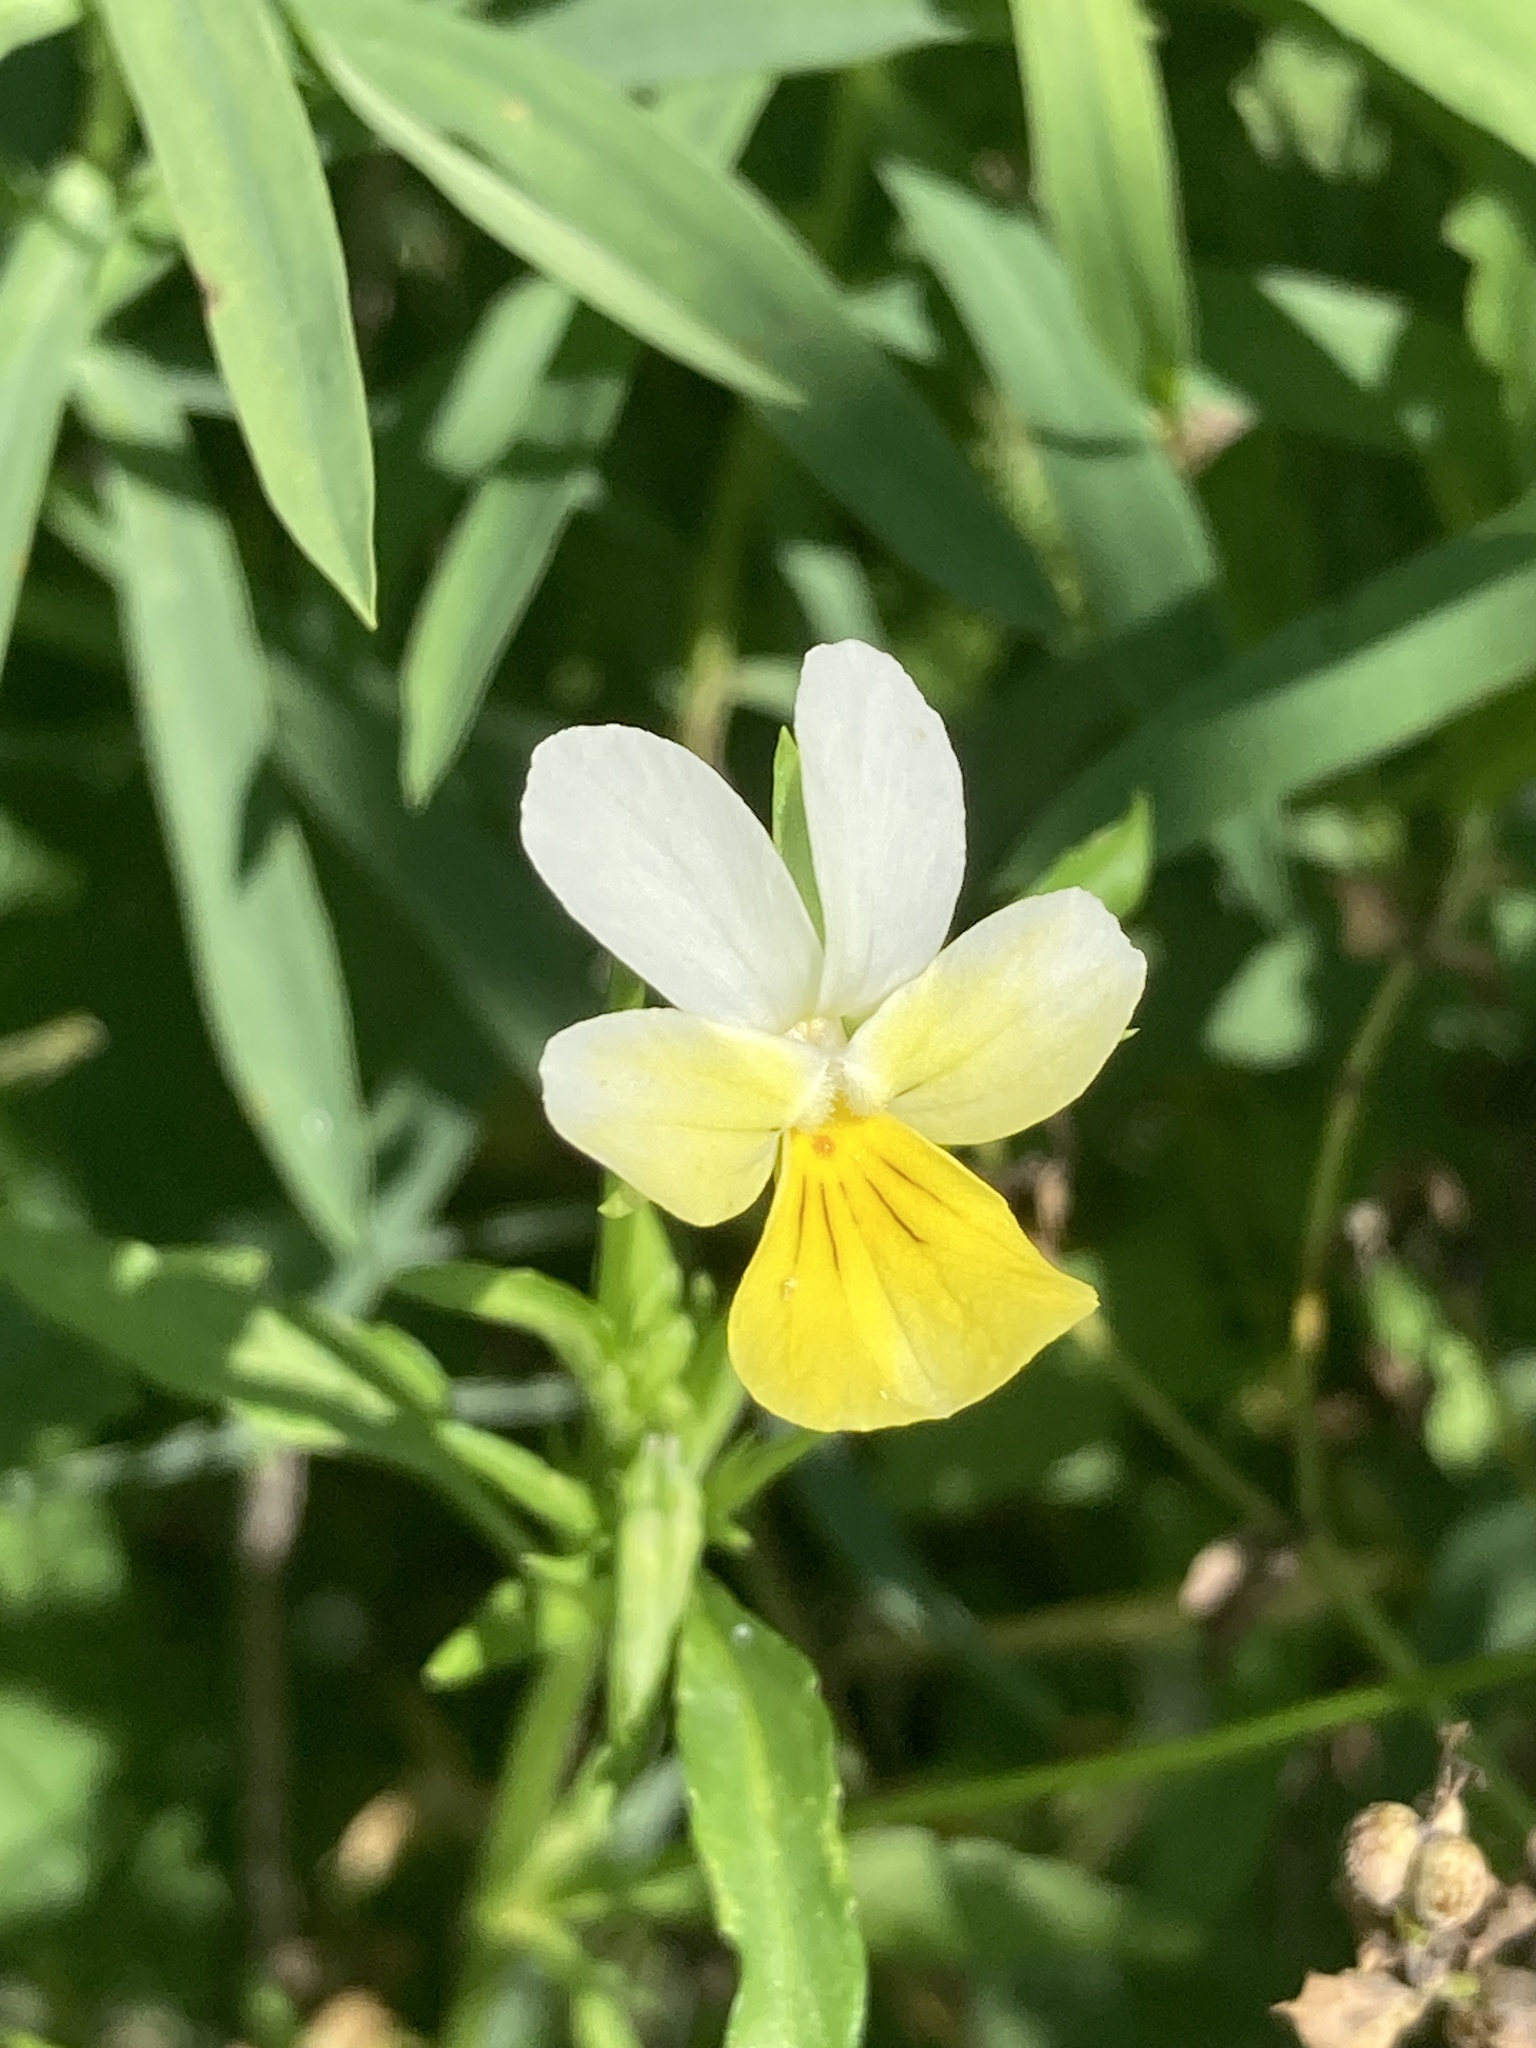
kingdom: Plantae
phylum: Tracheophyta
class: Magnoliopsida
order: Malpighiales
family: Violaceae
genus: Viola
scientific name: Viola arvensis
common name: Field pansy
